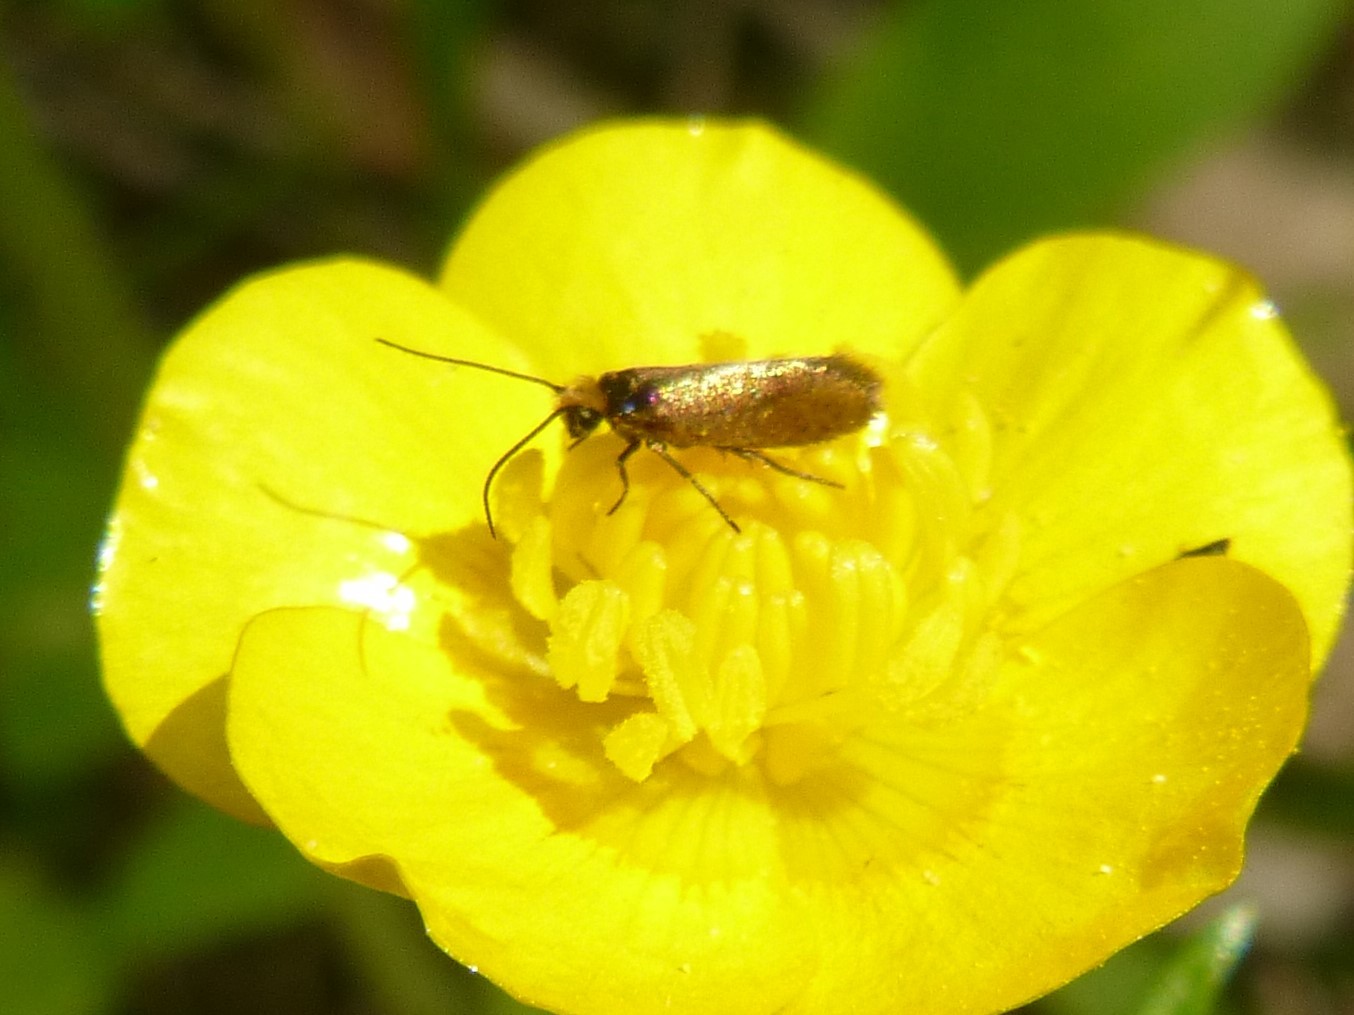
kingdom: Animalia
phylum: Arthropoda
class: Insecta
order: Lepidoptera
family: Micropterigidae
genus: Micropterix
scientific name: Micropterix calthella
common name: Plain gold
